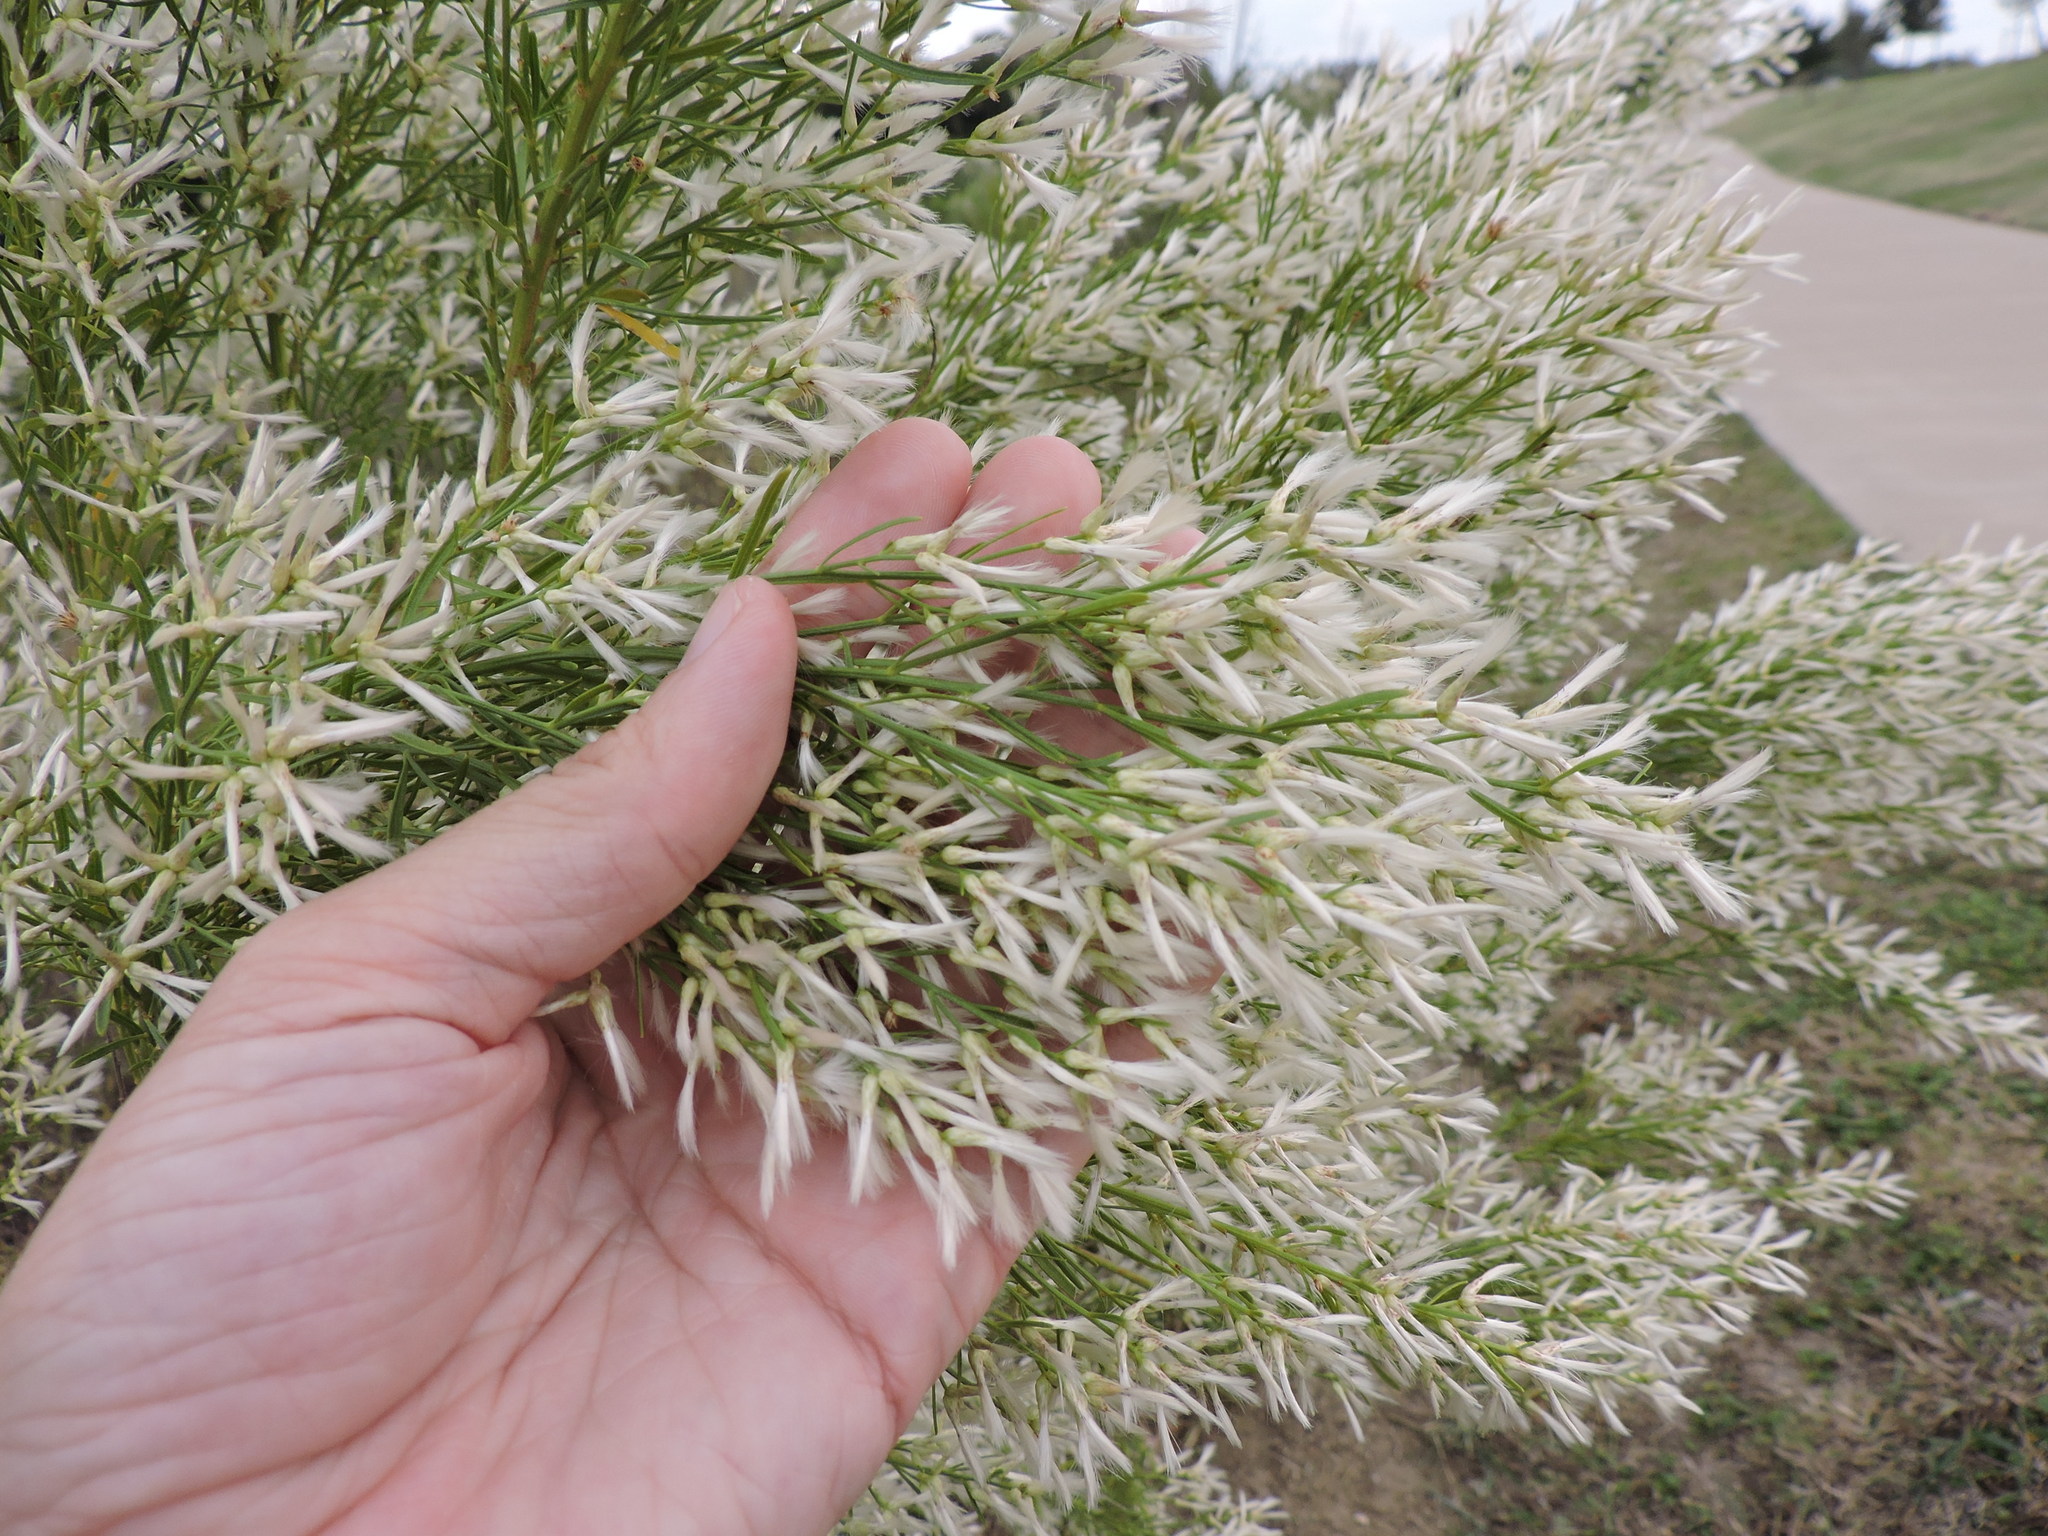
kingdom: Plantae
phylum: Tracheophyta
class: Magnoliopsida
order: Asterales
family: Asteraceae
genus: Baccharis
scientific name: Baccharis neglecta
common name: Roosevelt-weed
